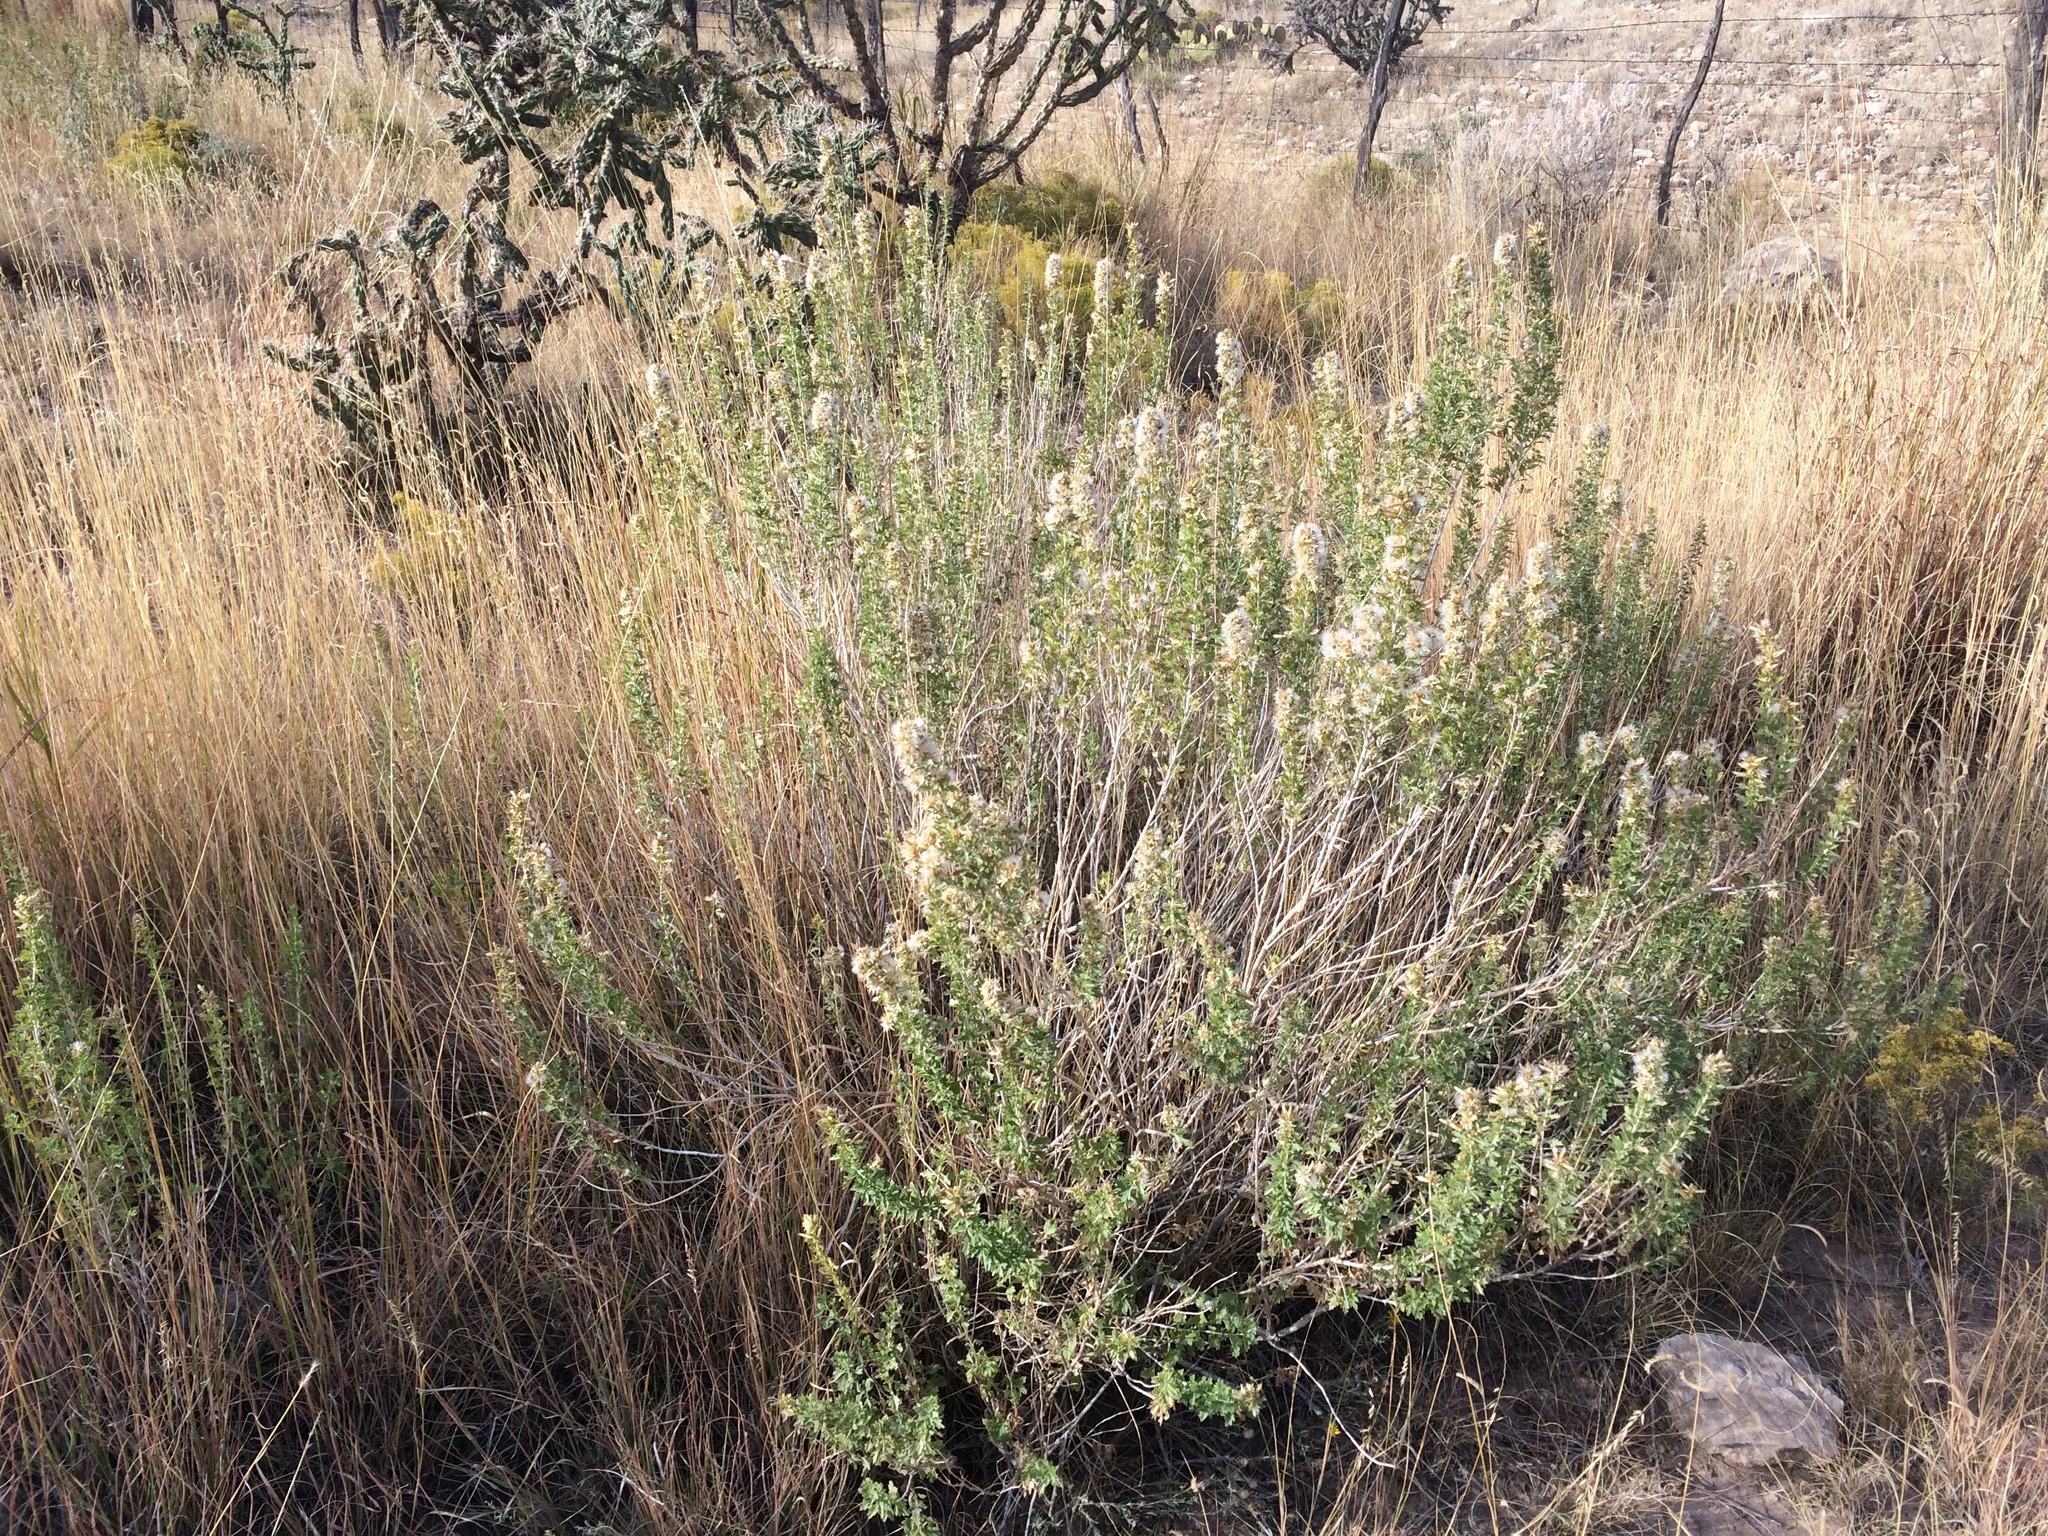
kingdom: Plantae
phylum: Tracheophyta
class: Magnoliopsida
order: Asterales
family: Asteraceae
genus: Brickellia
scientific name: Brickellia laciniata
